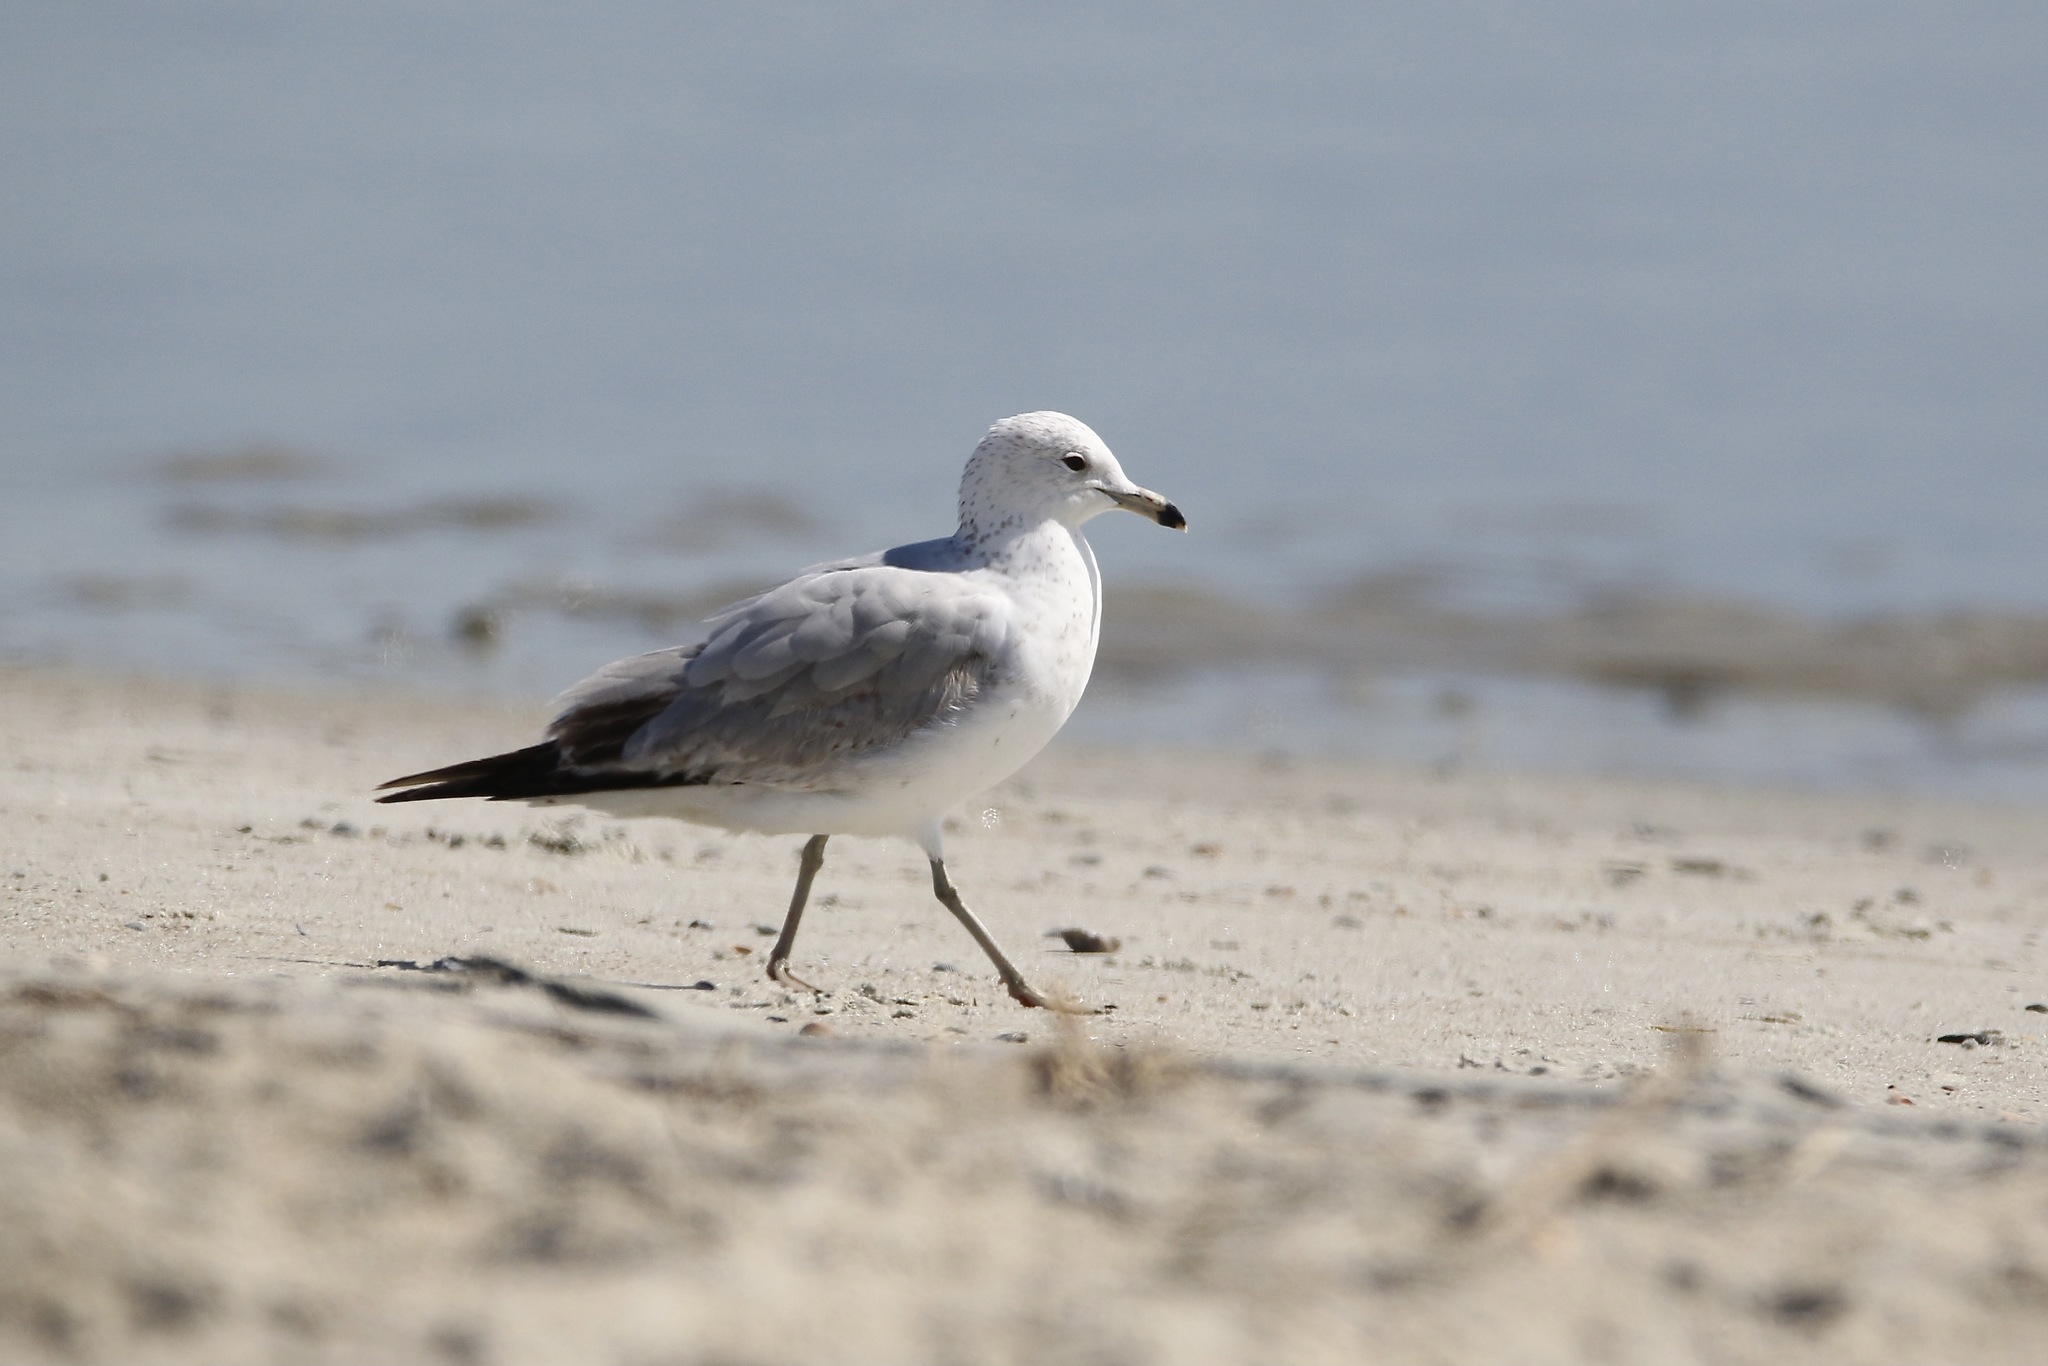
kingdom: Animalia
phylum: Chordata
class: Aves
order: Charadriiformes
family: Laridae
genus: Larus
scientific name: Larus delawarensis
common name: Ring-billed gull
